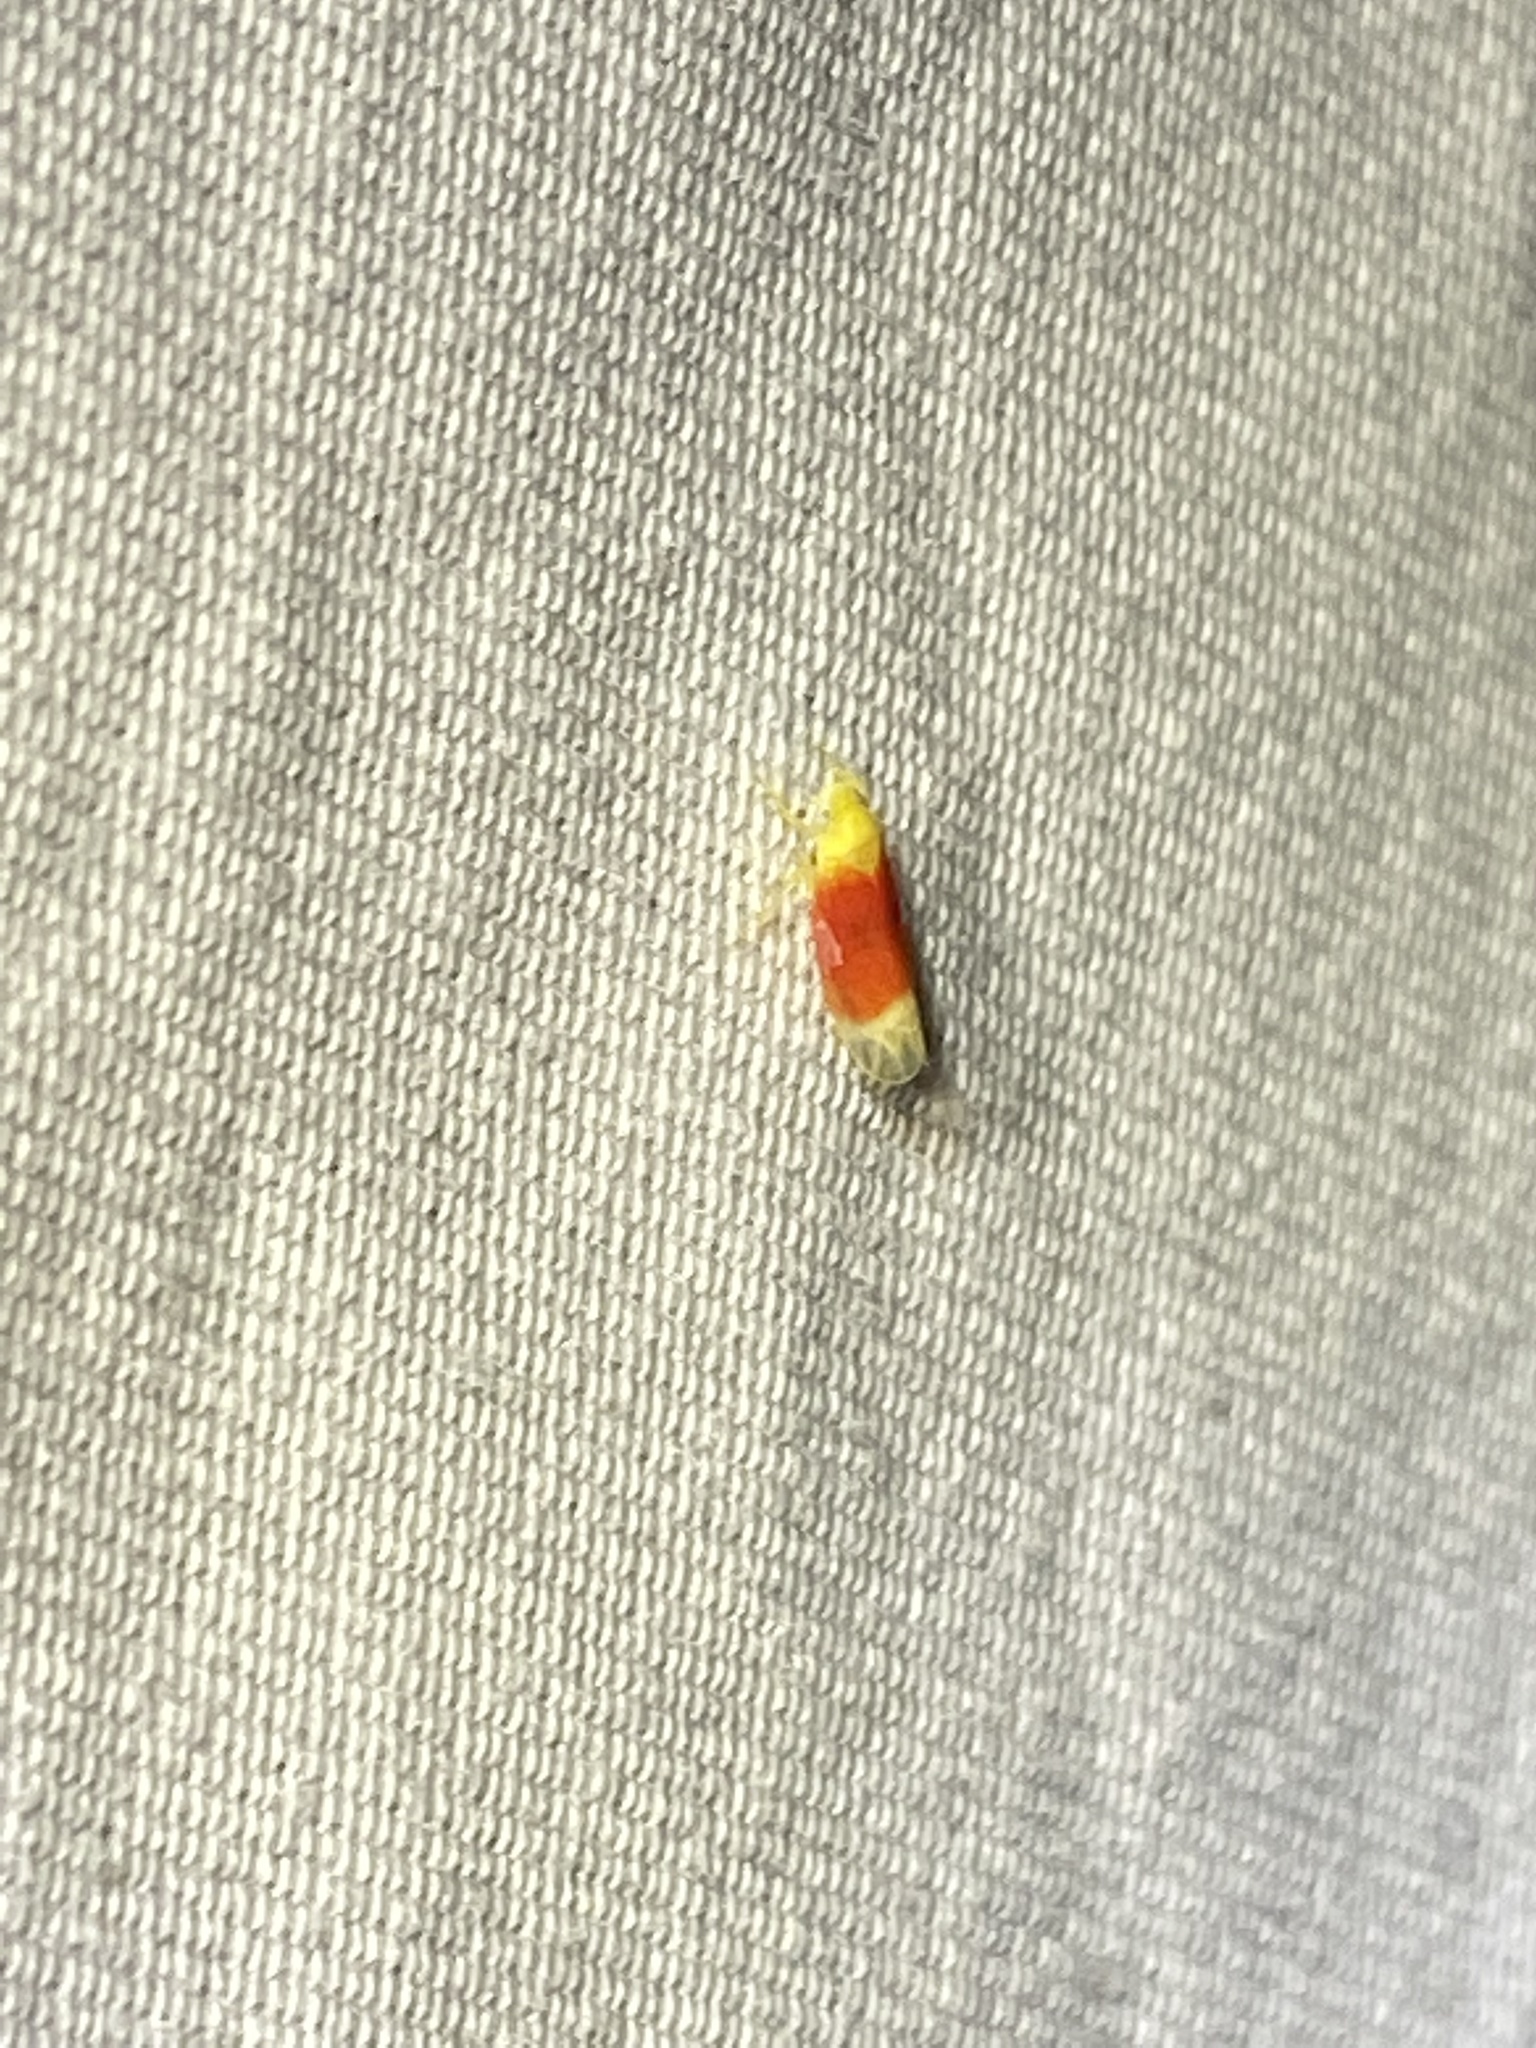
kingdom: Animalia
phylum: Arthropoda
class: Insecta
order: Hemiptera
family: Cicadellidae
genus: Ossiannilssonola
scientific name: Ossiannilssonola tunicarubra
